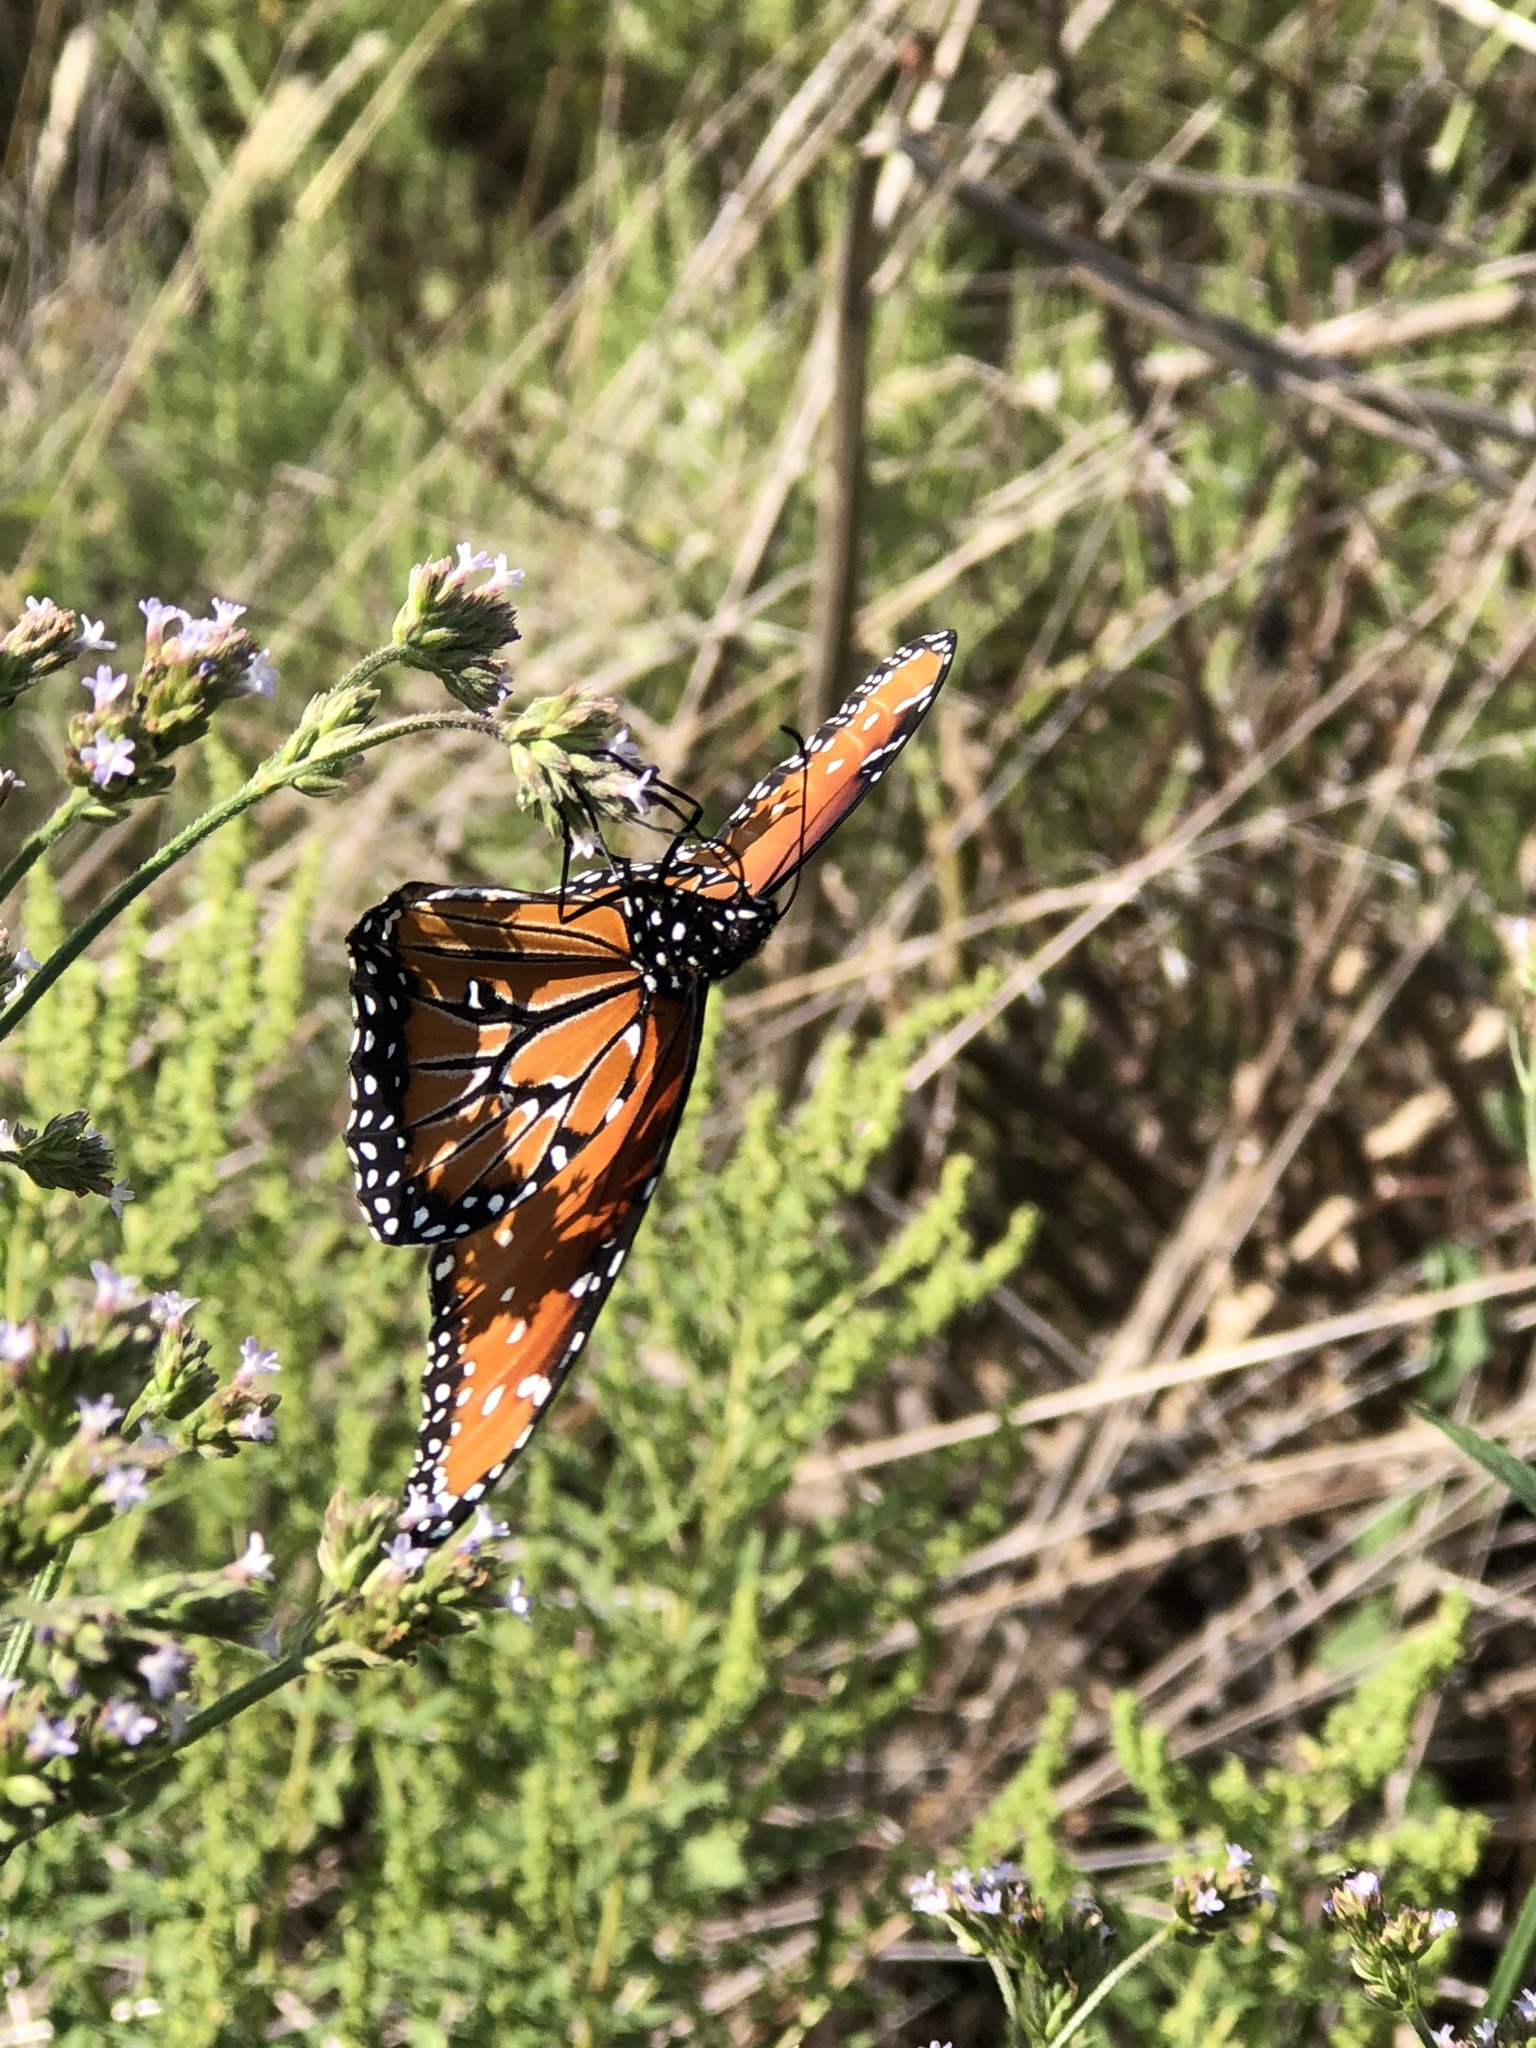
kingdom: Animalia
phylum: Arthropoda
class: Insecta
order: Lepidoptera
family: Nymphalidae
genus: Danaus
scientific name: Danaus gilippus
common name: Queen
